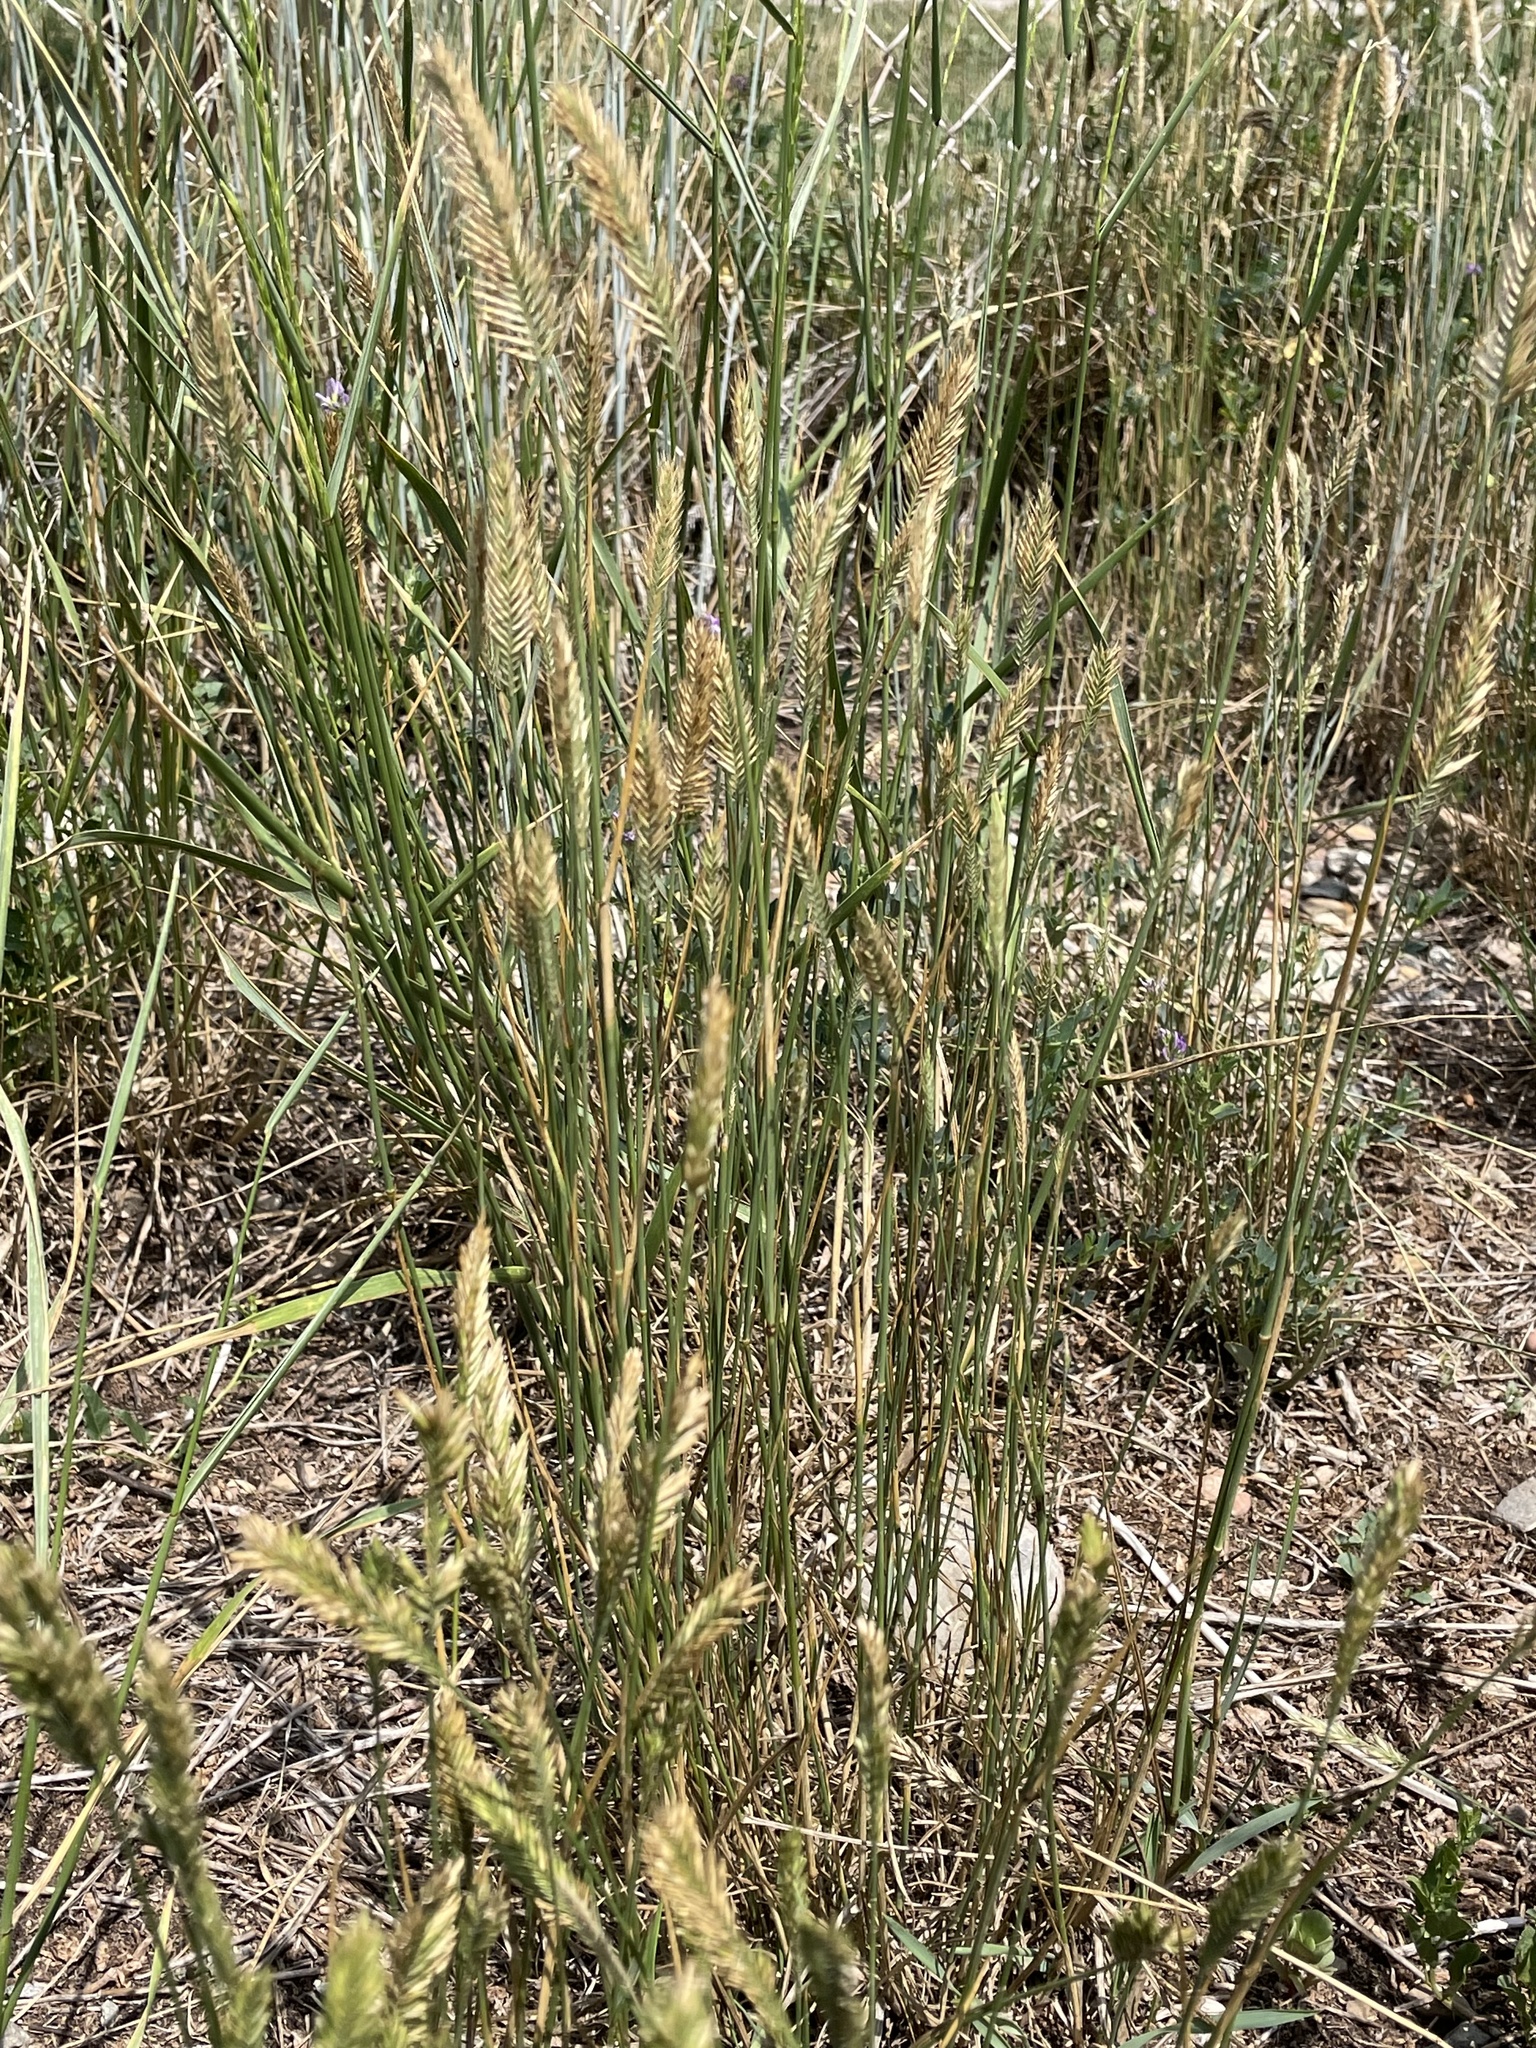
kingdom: Plantae
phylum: Tracheophyta
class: Liliopsida
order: Poales
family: Poaceae
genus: Agropyron
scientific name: Agropyron cristatum
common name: Crested wheatgrass
